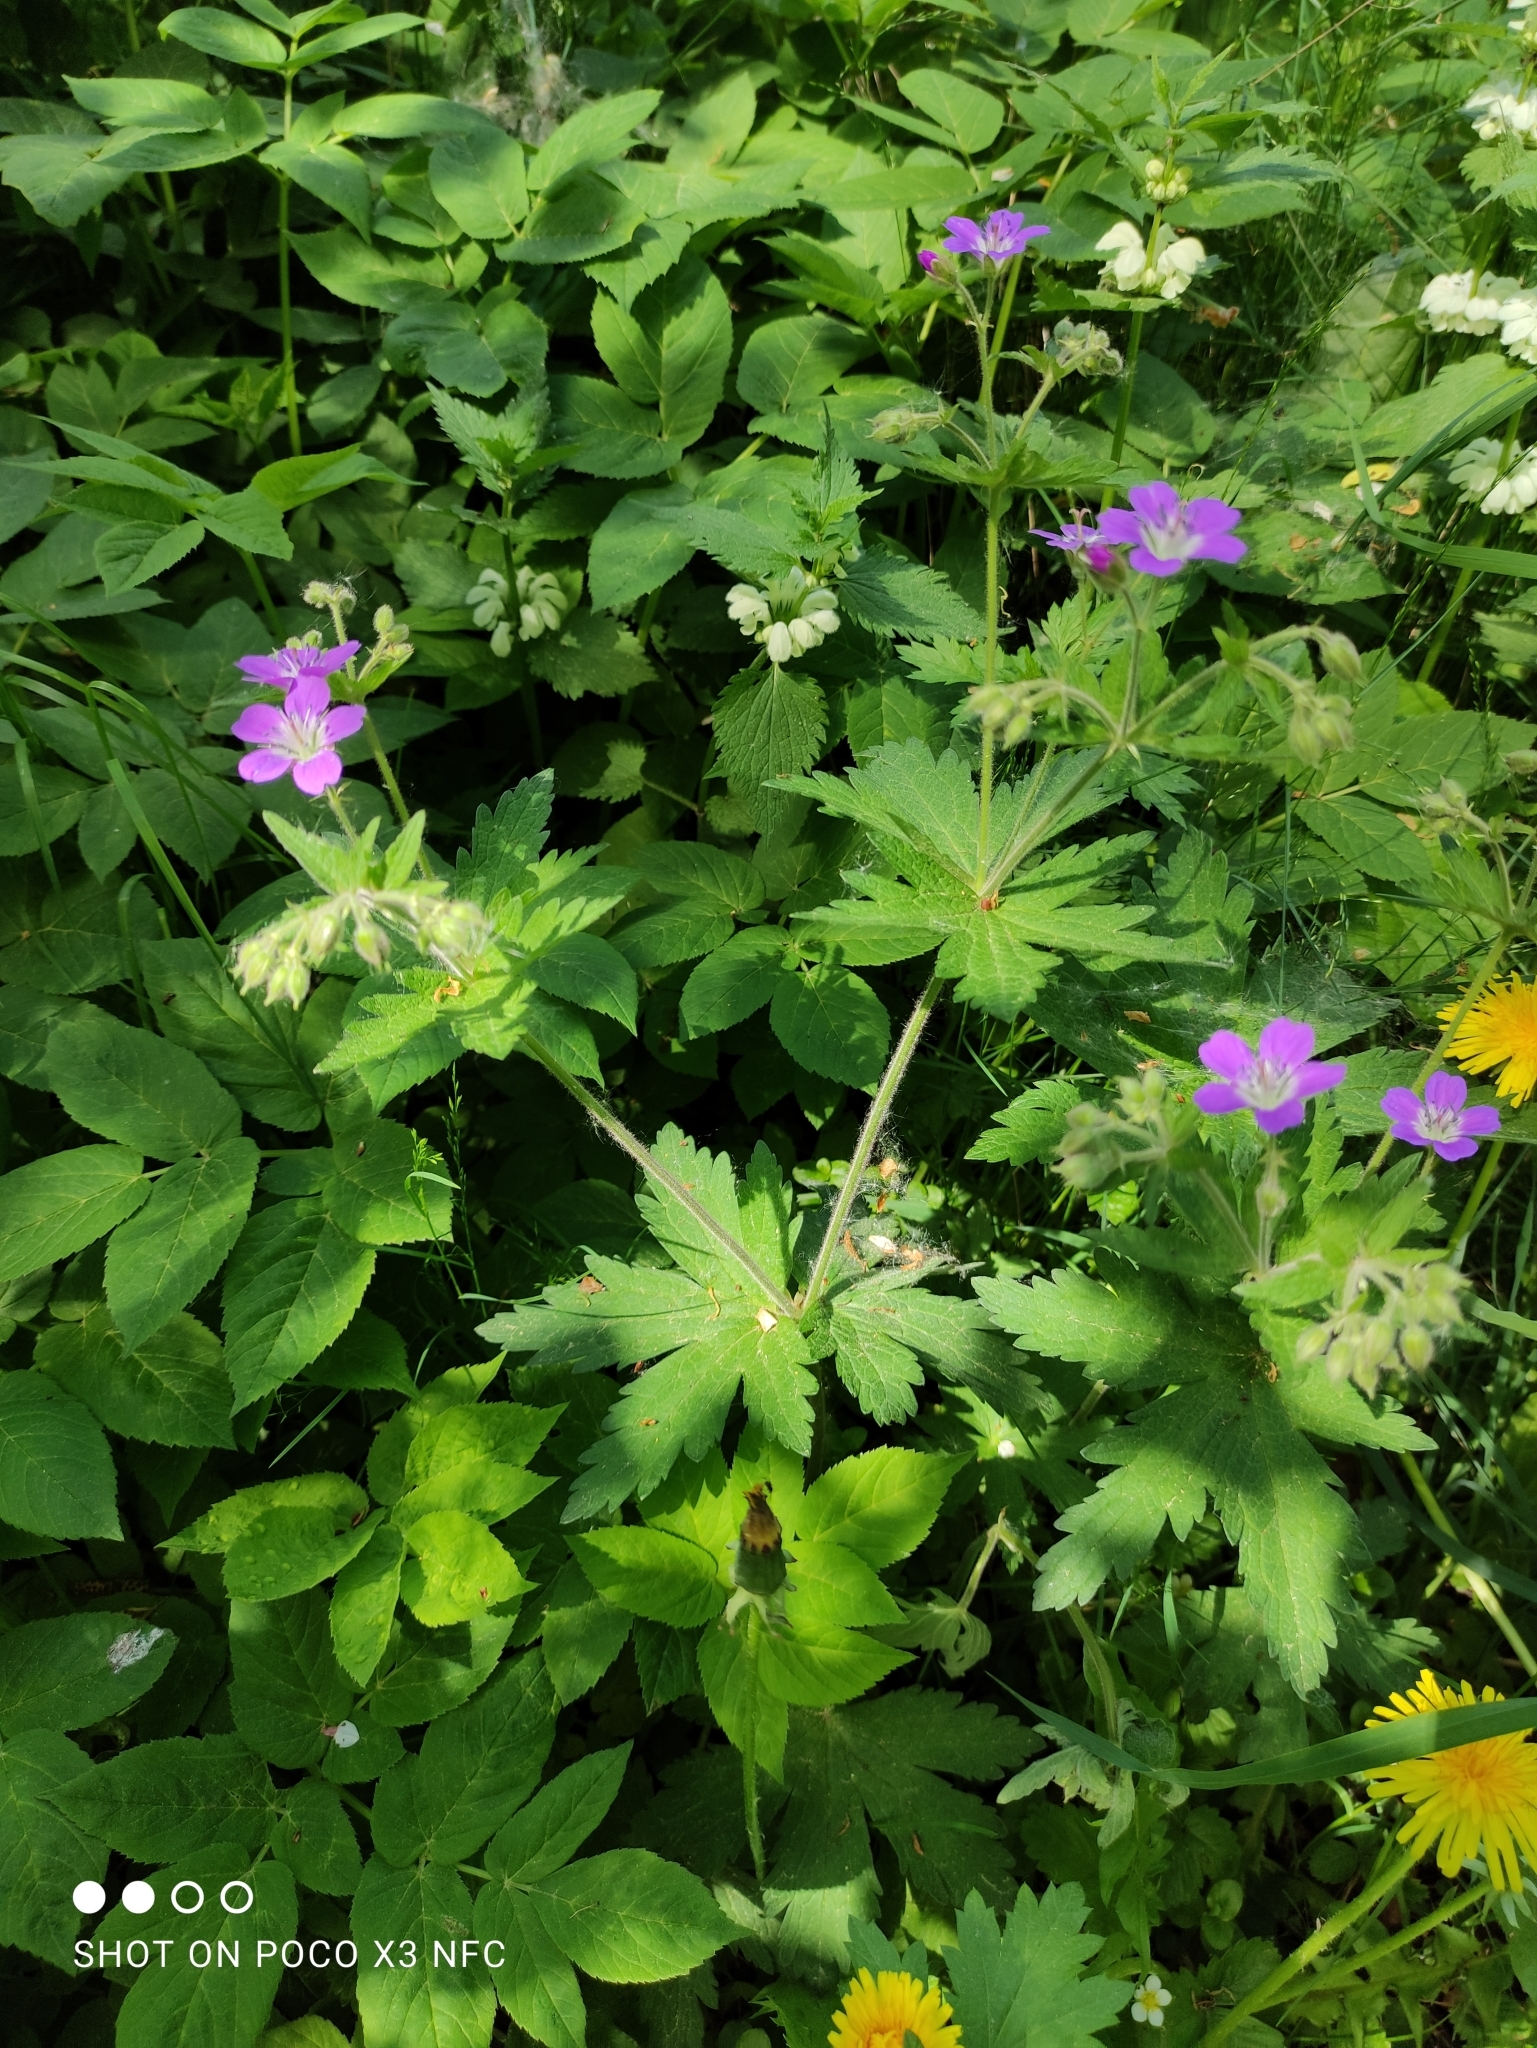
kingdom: Plantae
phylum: Tracheophyta
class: Magnoliopsida
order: Geraniales
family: Geraniaceae
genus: Geranium
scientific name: Geranium sylvaticum
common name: Wood crane's-bill
